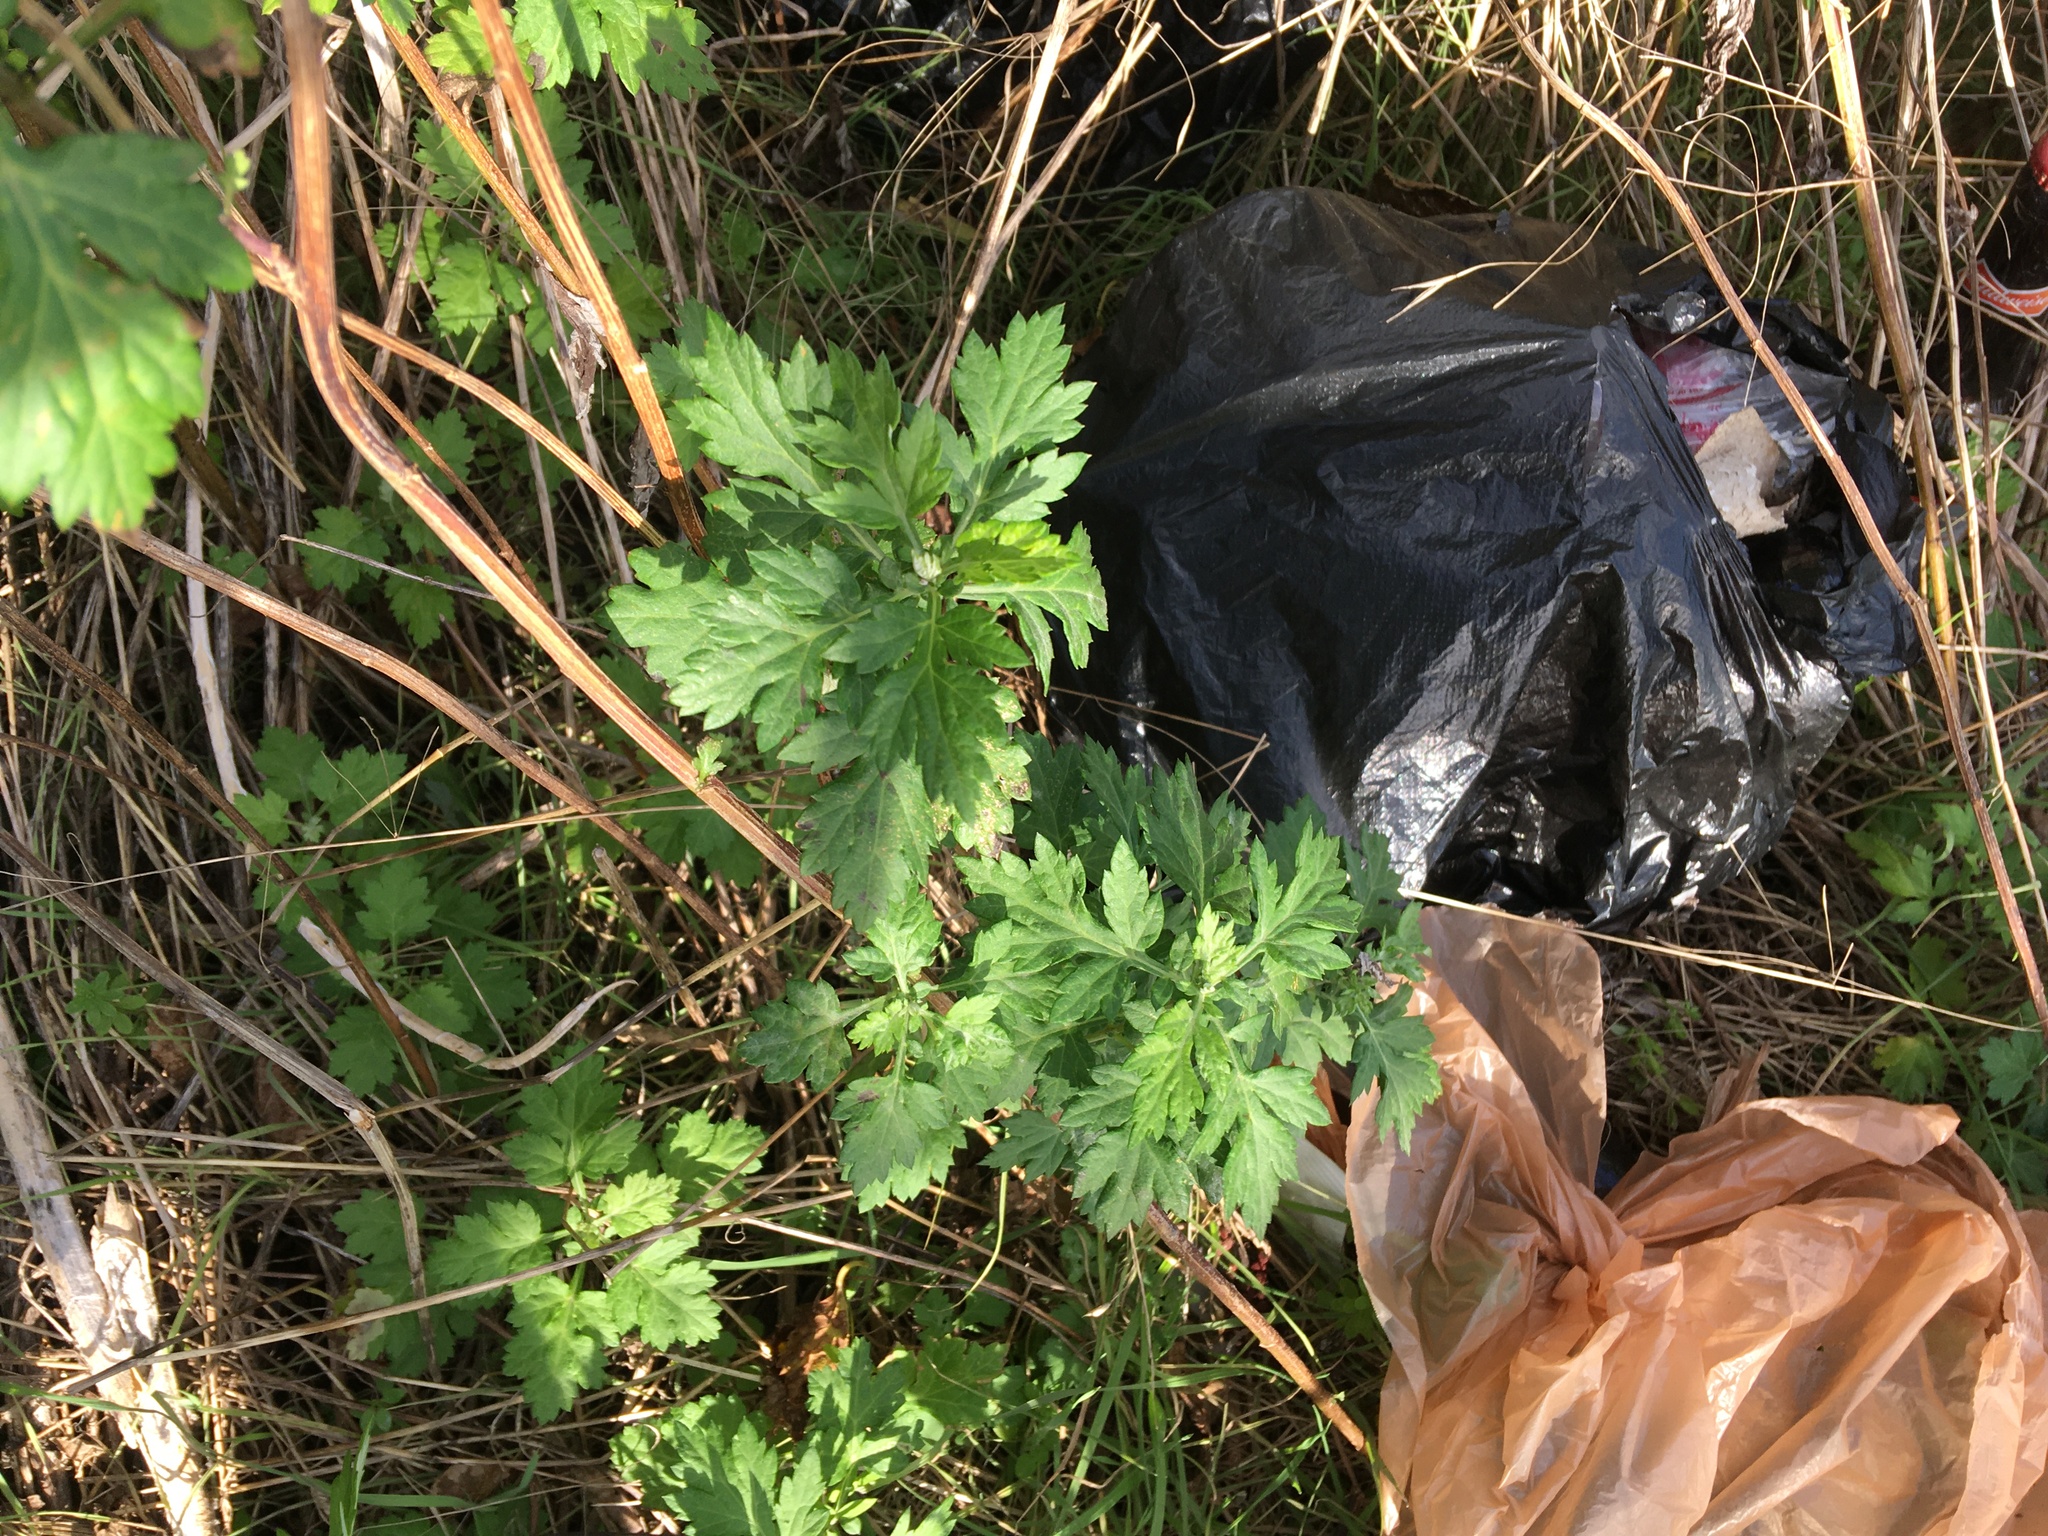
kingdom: Plantae
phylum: Tracheophyta
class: Magnoliopsida
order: Asterales
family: Asteraceae
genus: Artemisia
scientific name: Artemisia vulgaris
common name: Mugwort
